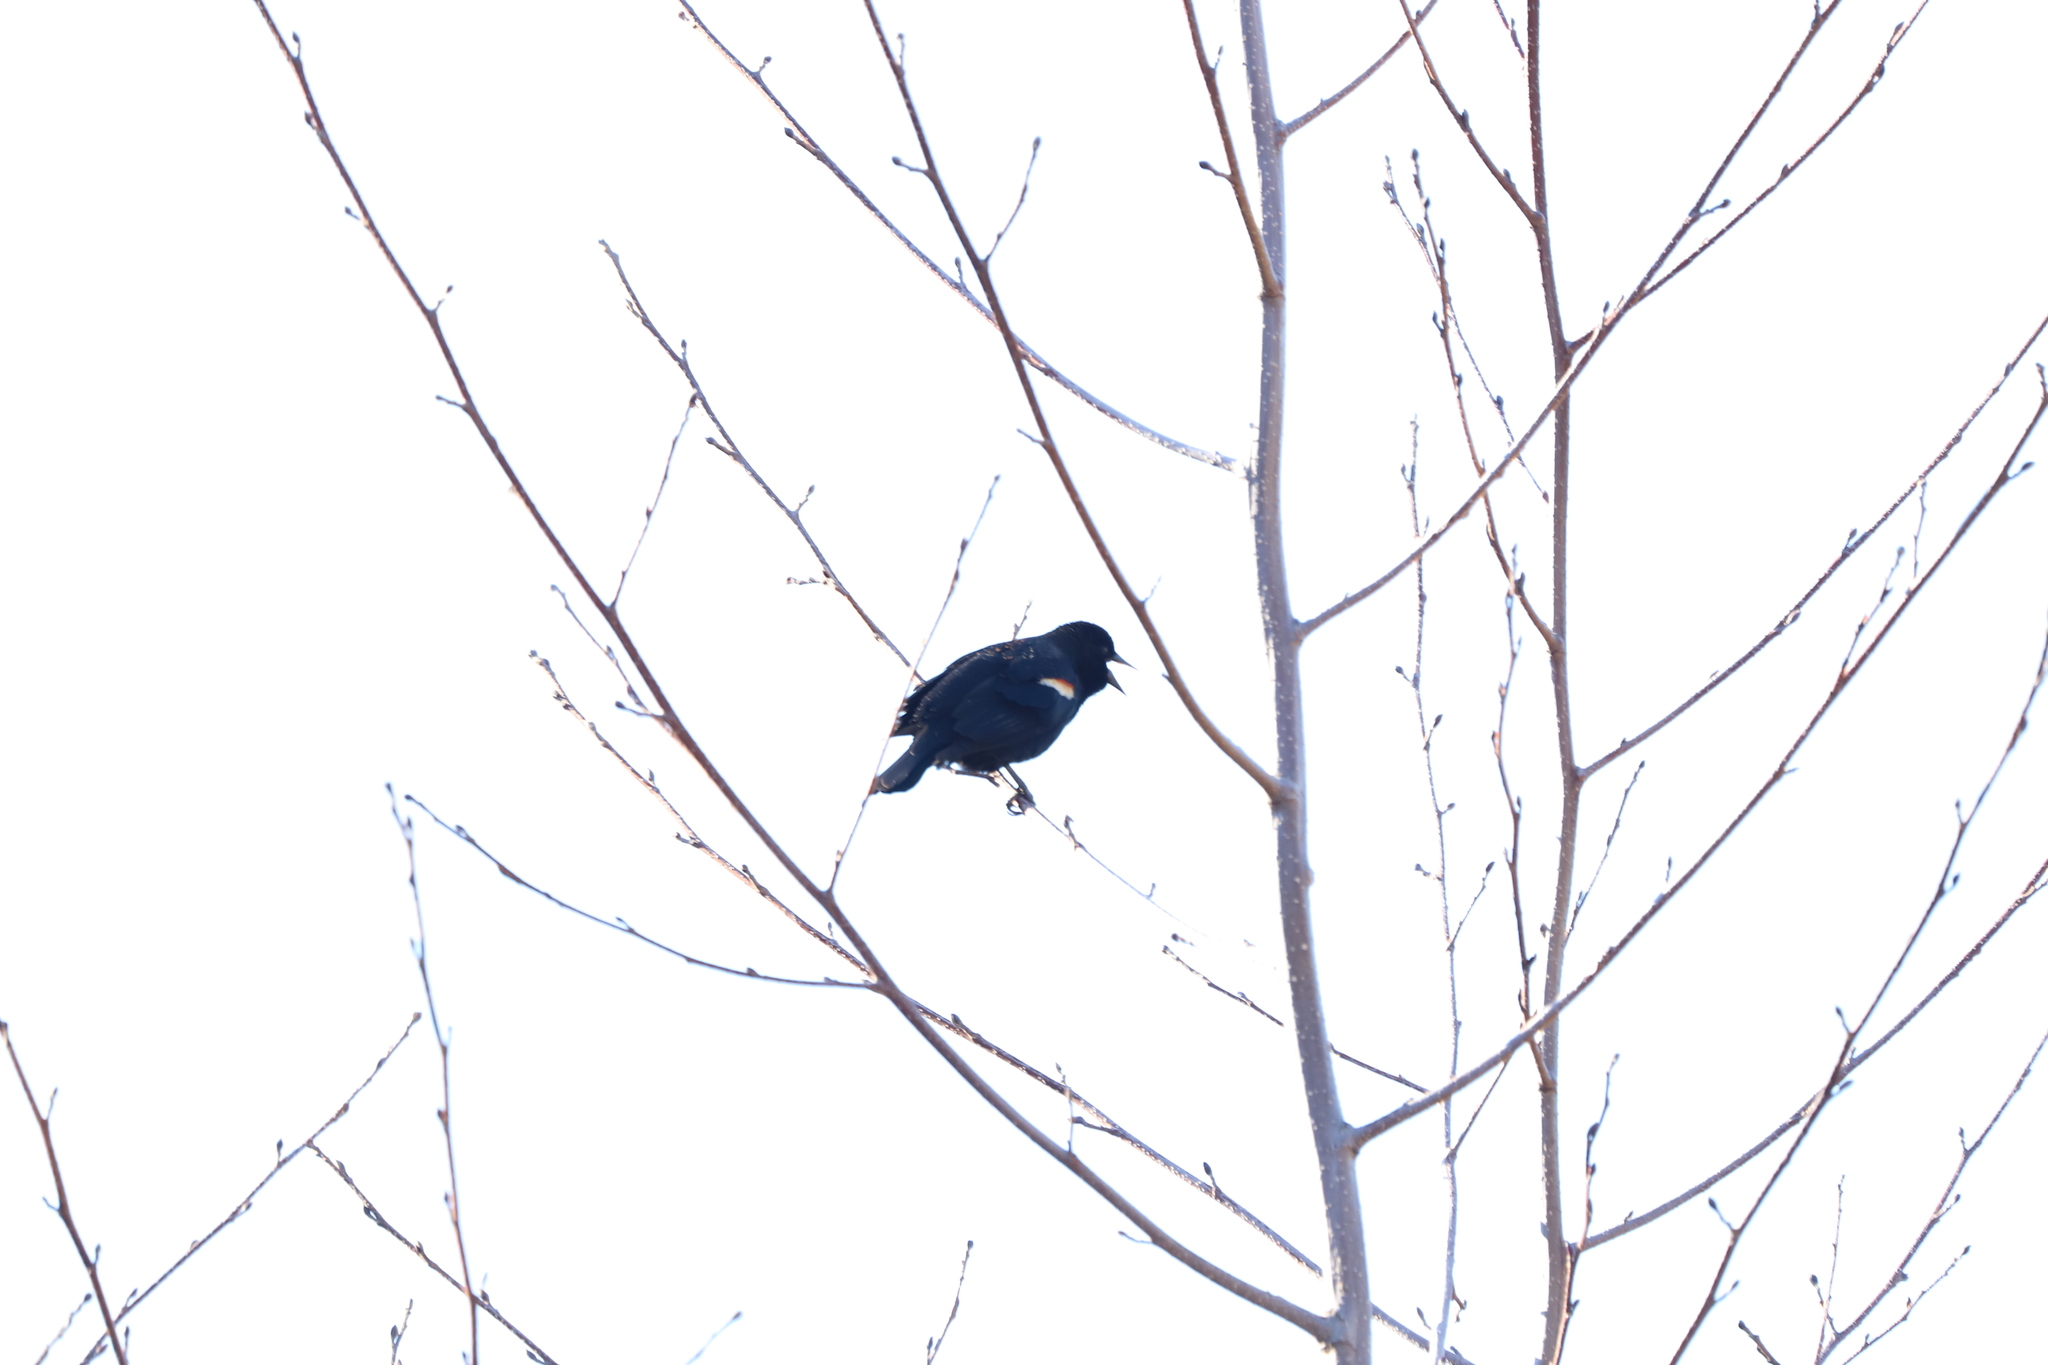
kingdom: Animalia
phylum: Chordata
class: Aves
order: Passeriformes
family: Icteridae
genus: Agelaius
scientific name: Agelaius phoeniceus
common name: Red-winged blackbird
